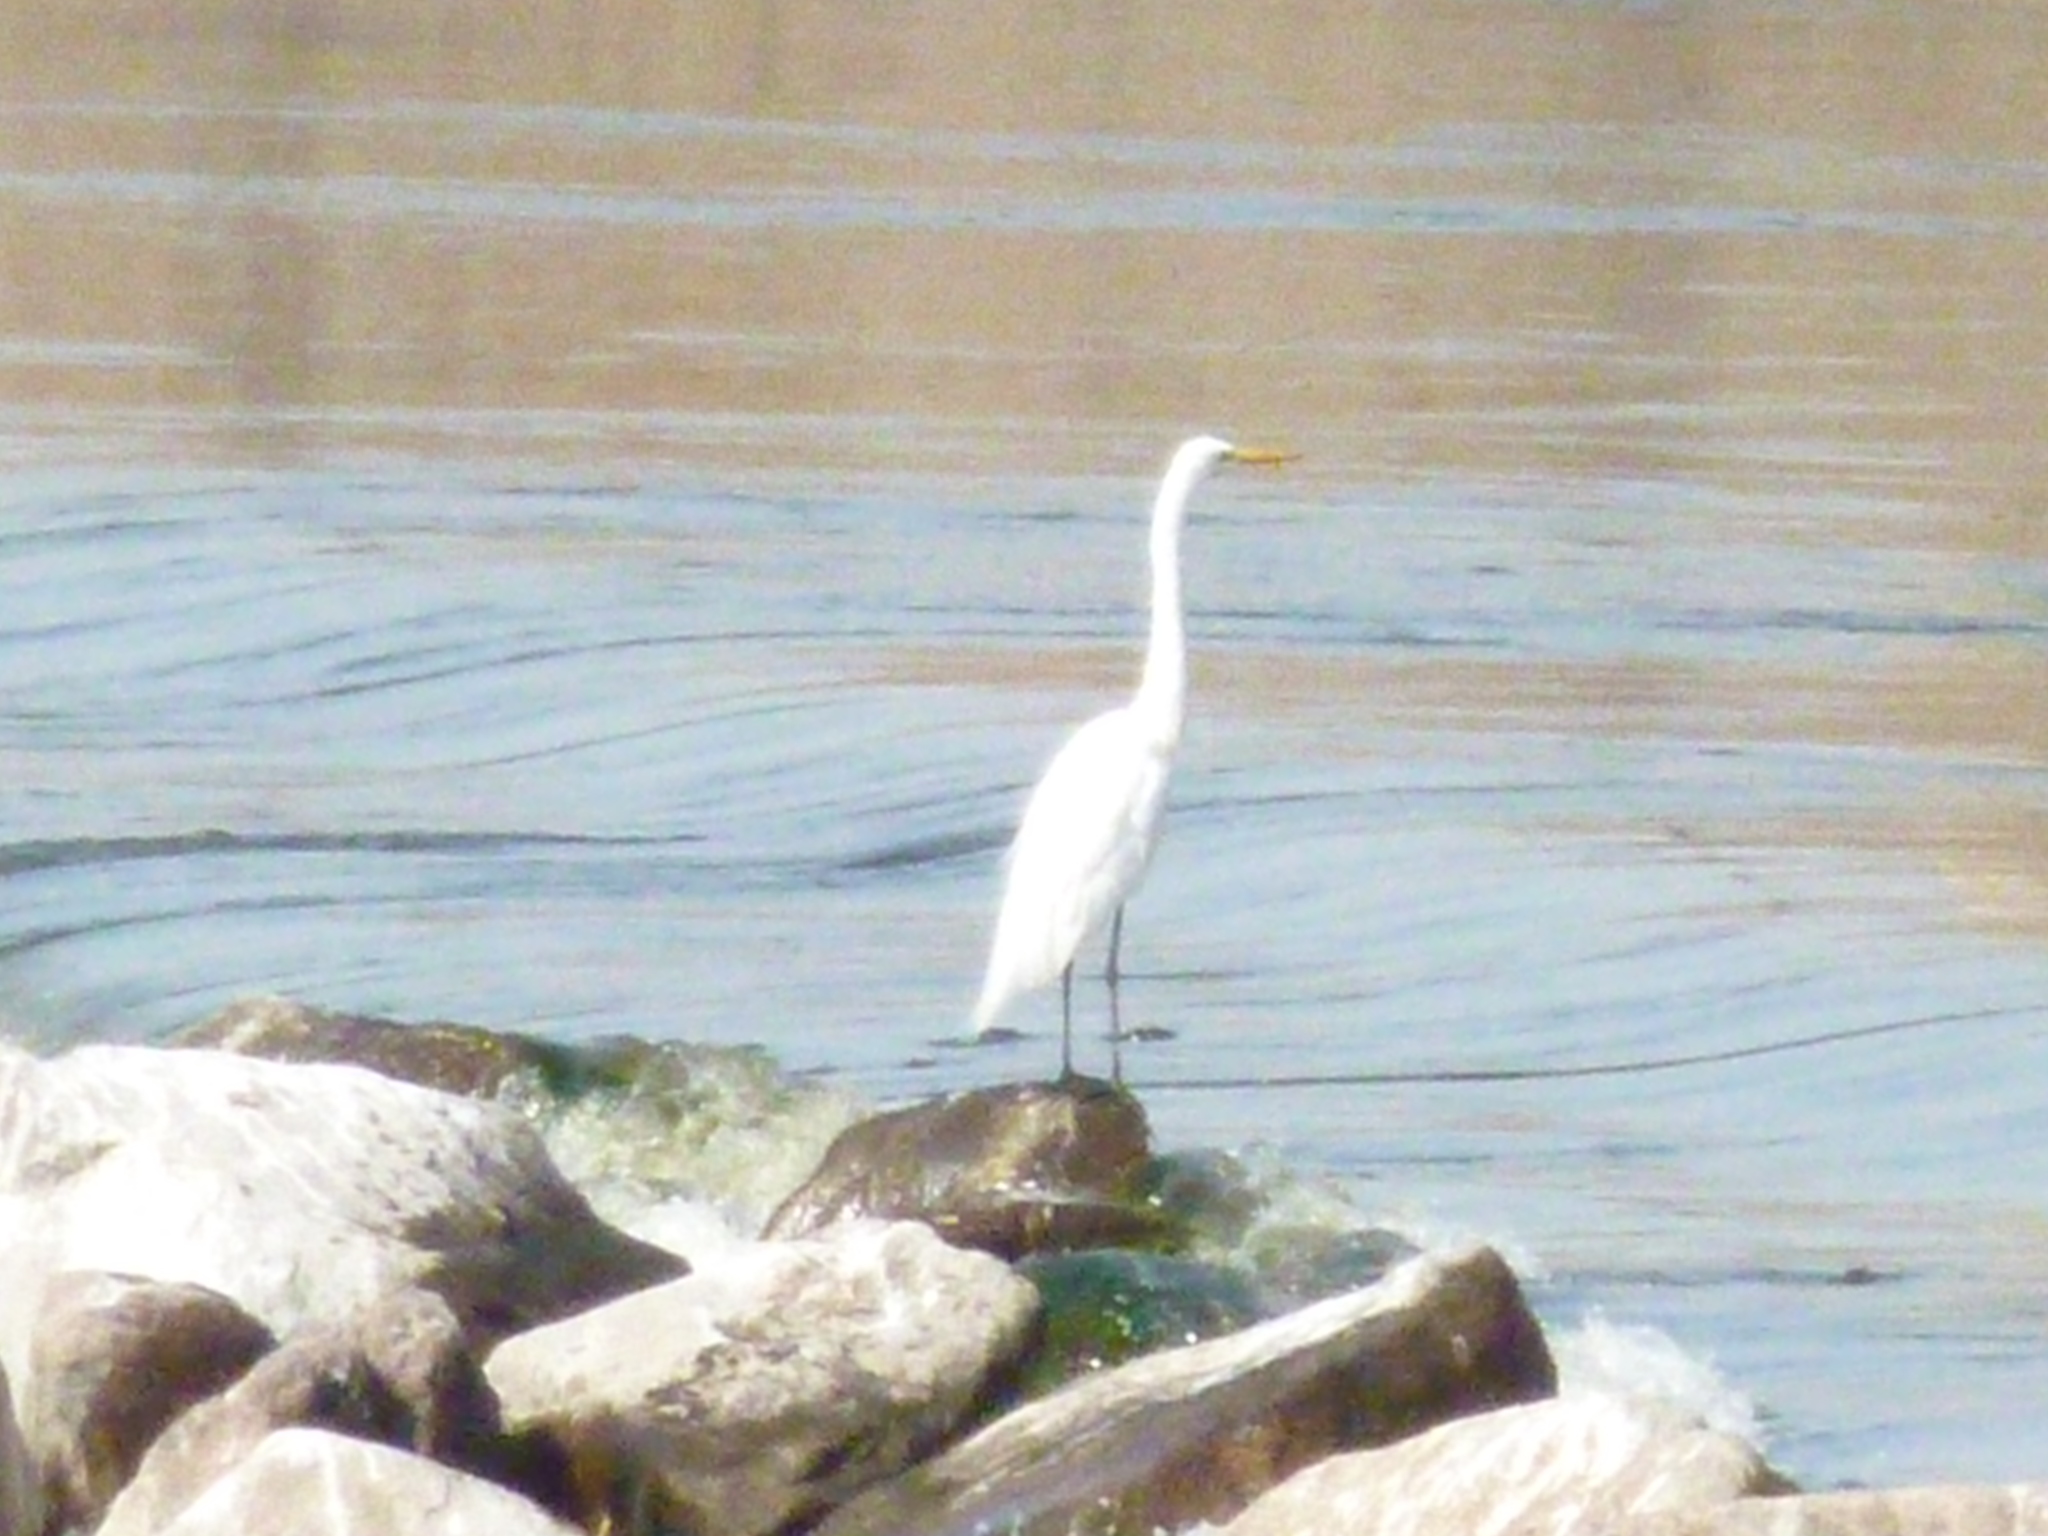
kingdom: Animalia
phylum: Chordata
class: Aves
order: Pelecaniformes
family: Ardeidae
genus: Ardea
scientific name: Ardea alba
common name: Great egret
